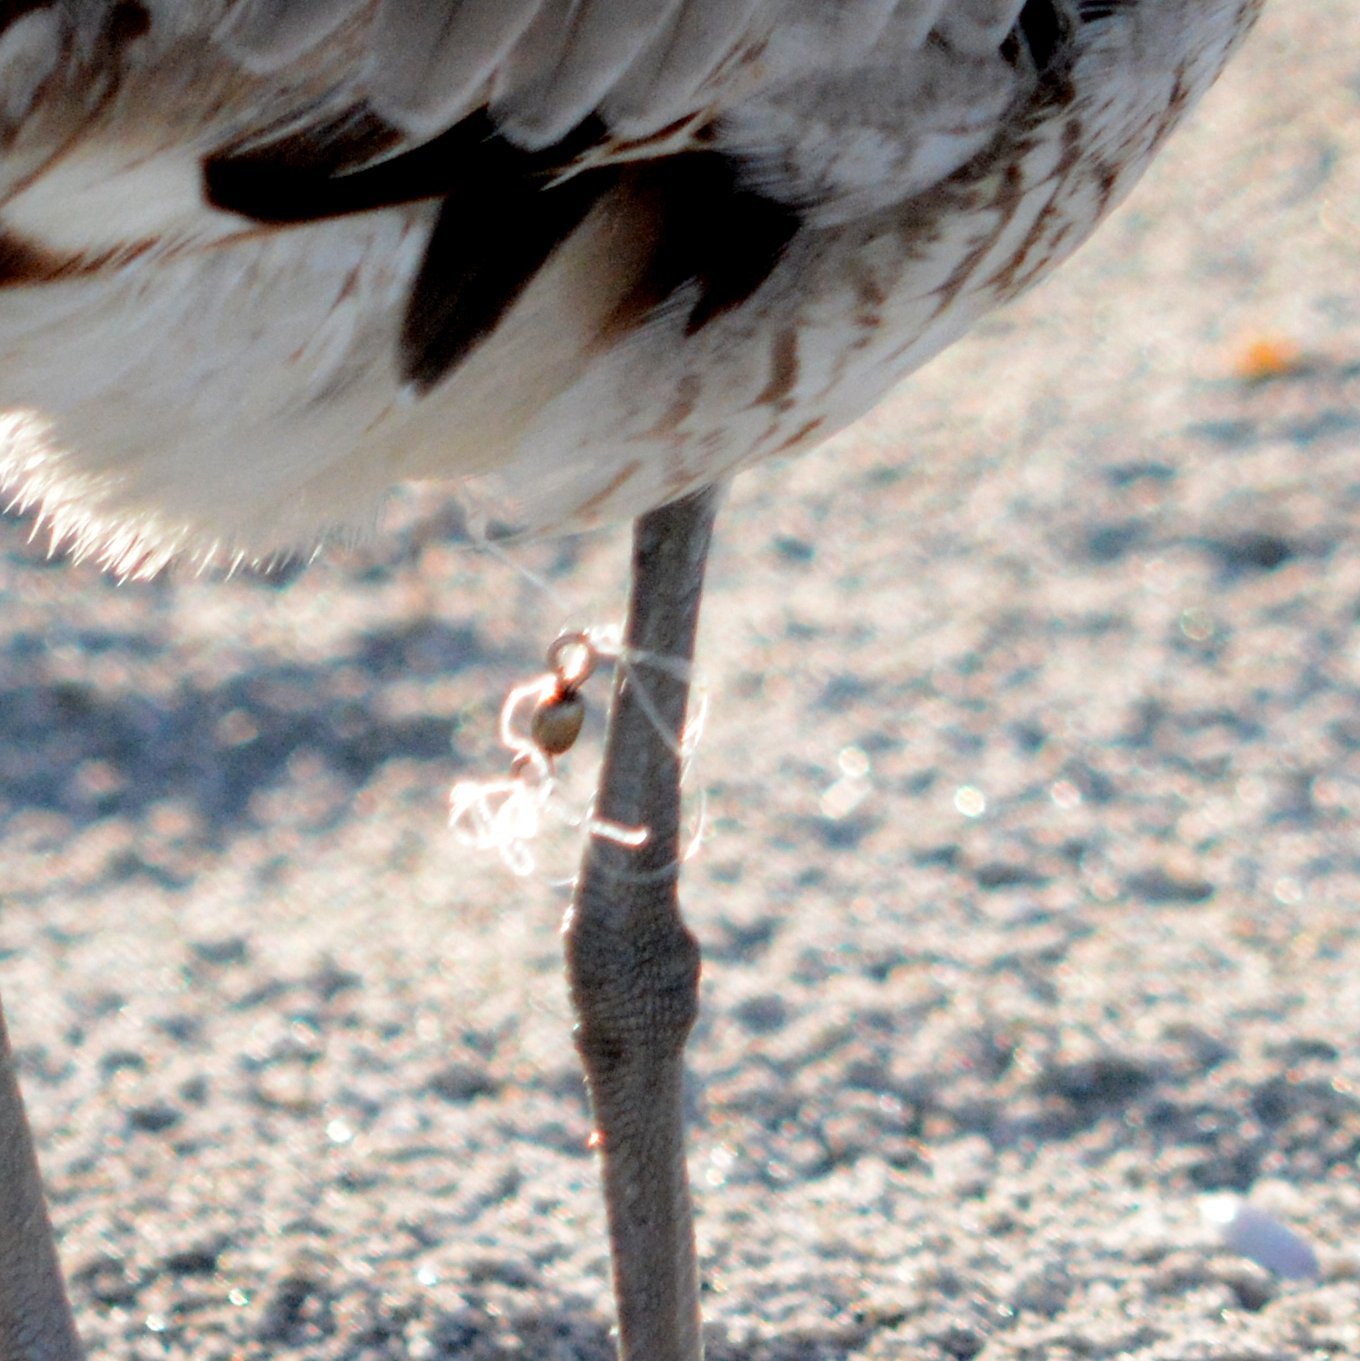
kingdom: Animalia
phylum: Chordata
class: Aves
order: Charadriiformes
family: Scolopacidae
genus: Tringa
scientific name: Tringa semipalmata
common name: Willet
